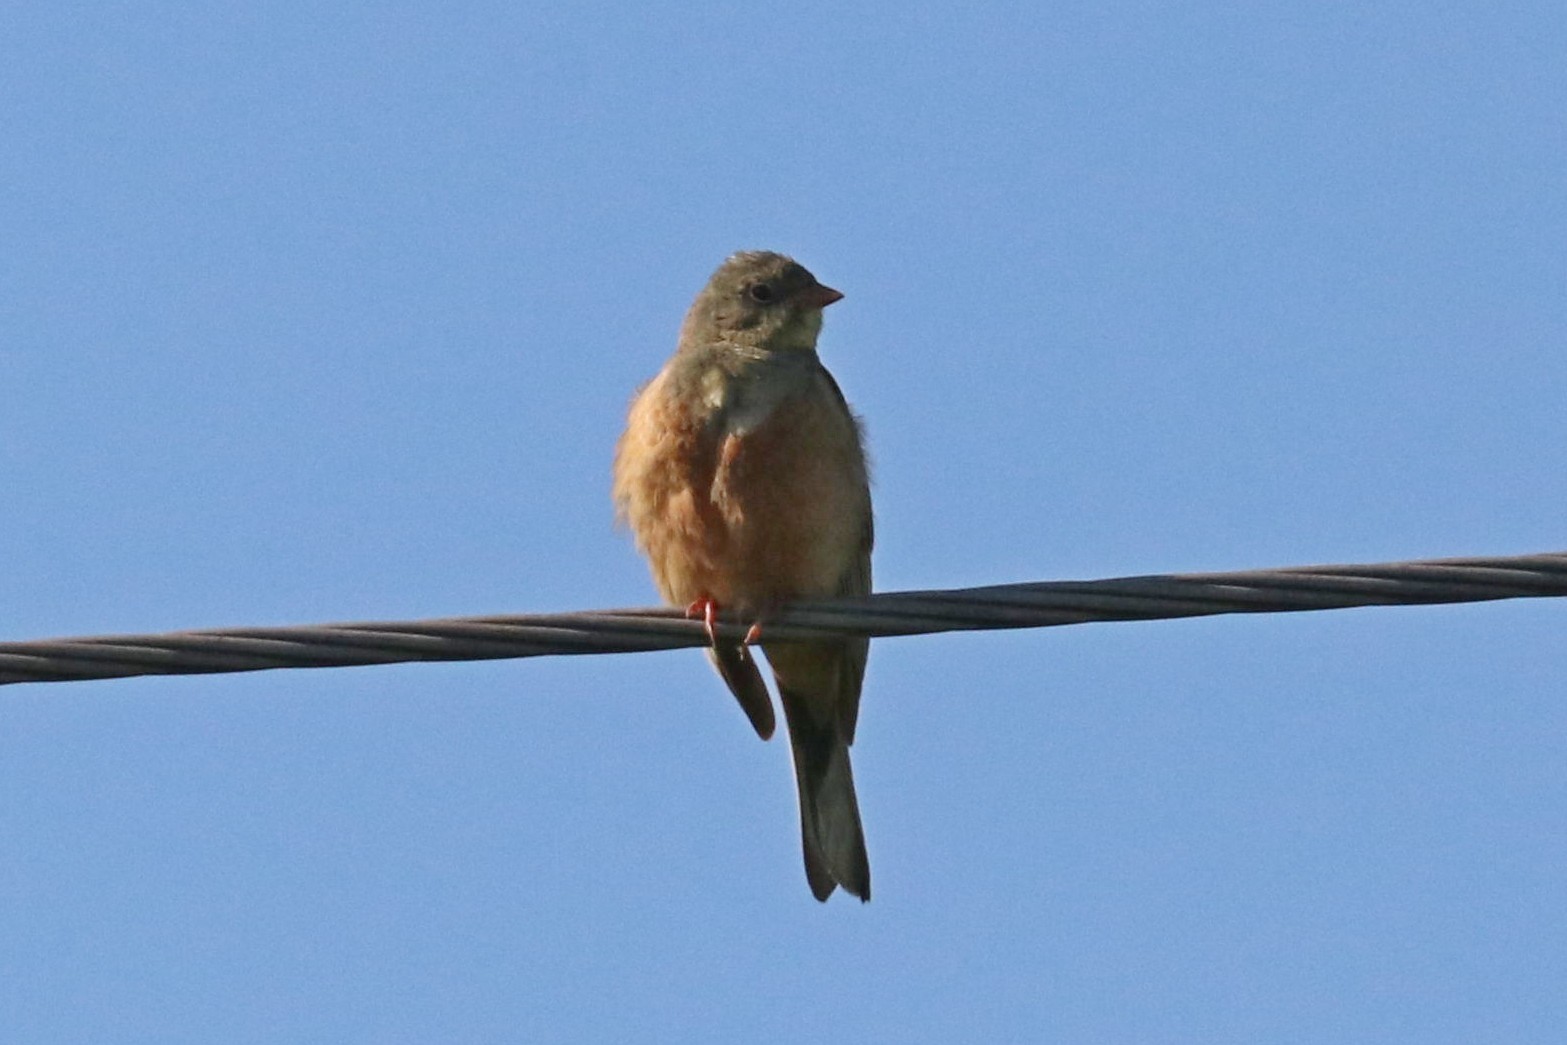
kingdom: Animalia
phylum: Chordata
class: Aves
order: Passeriformes
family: Emberizidae
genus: Emberiza
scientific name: Emberiza hortulana
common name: Ortolan bunting
